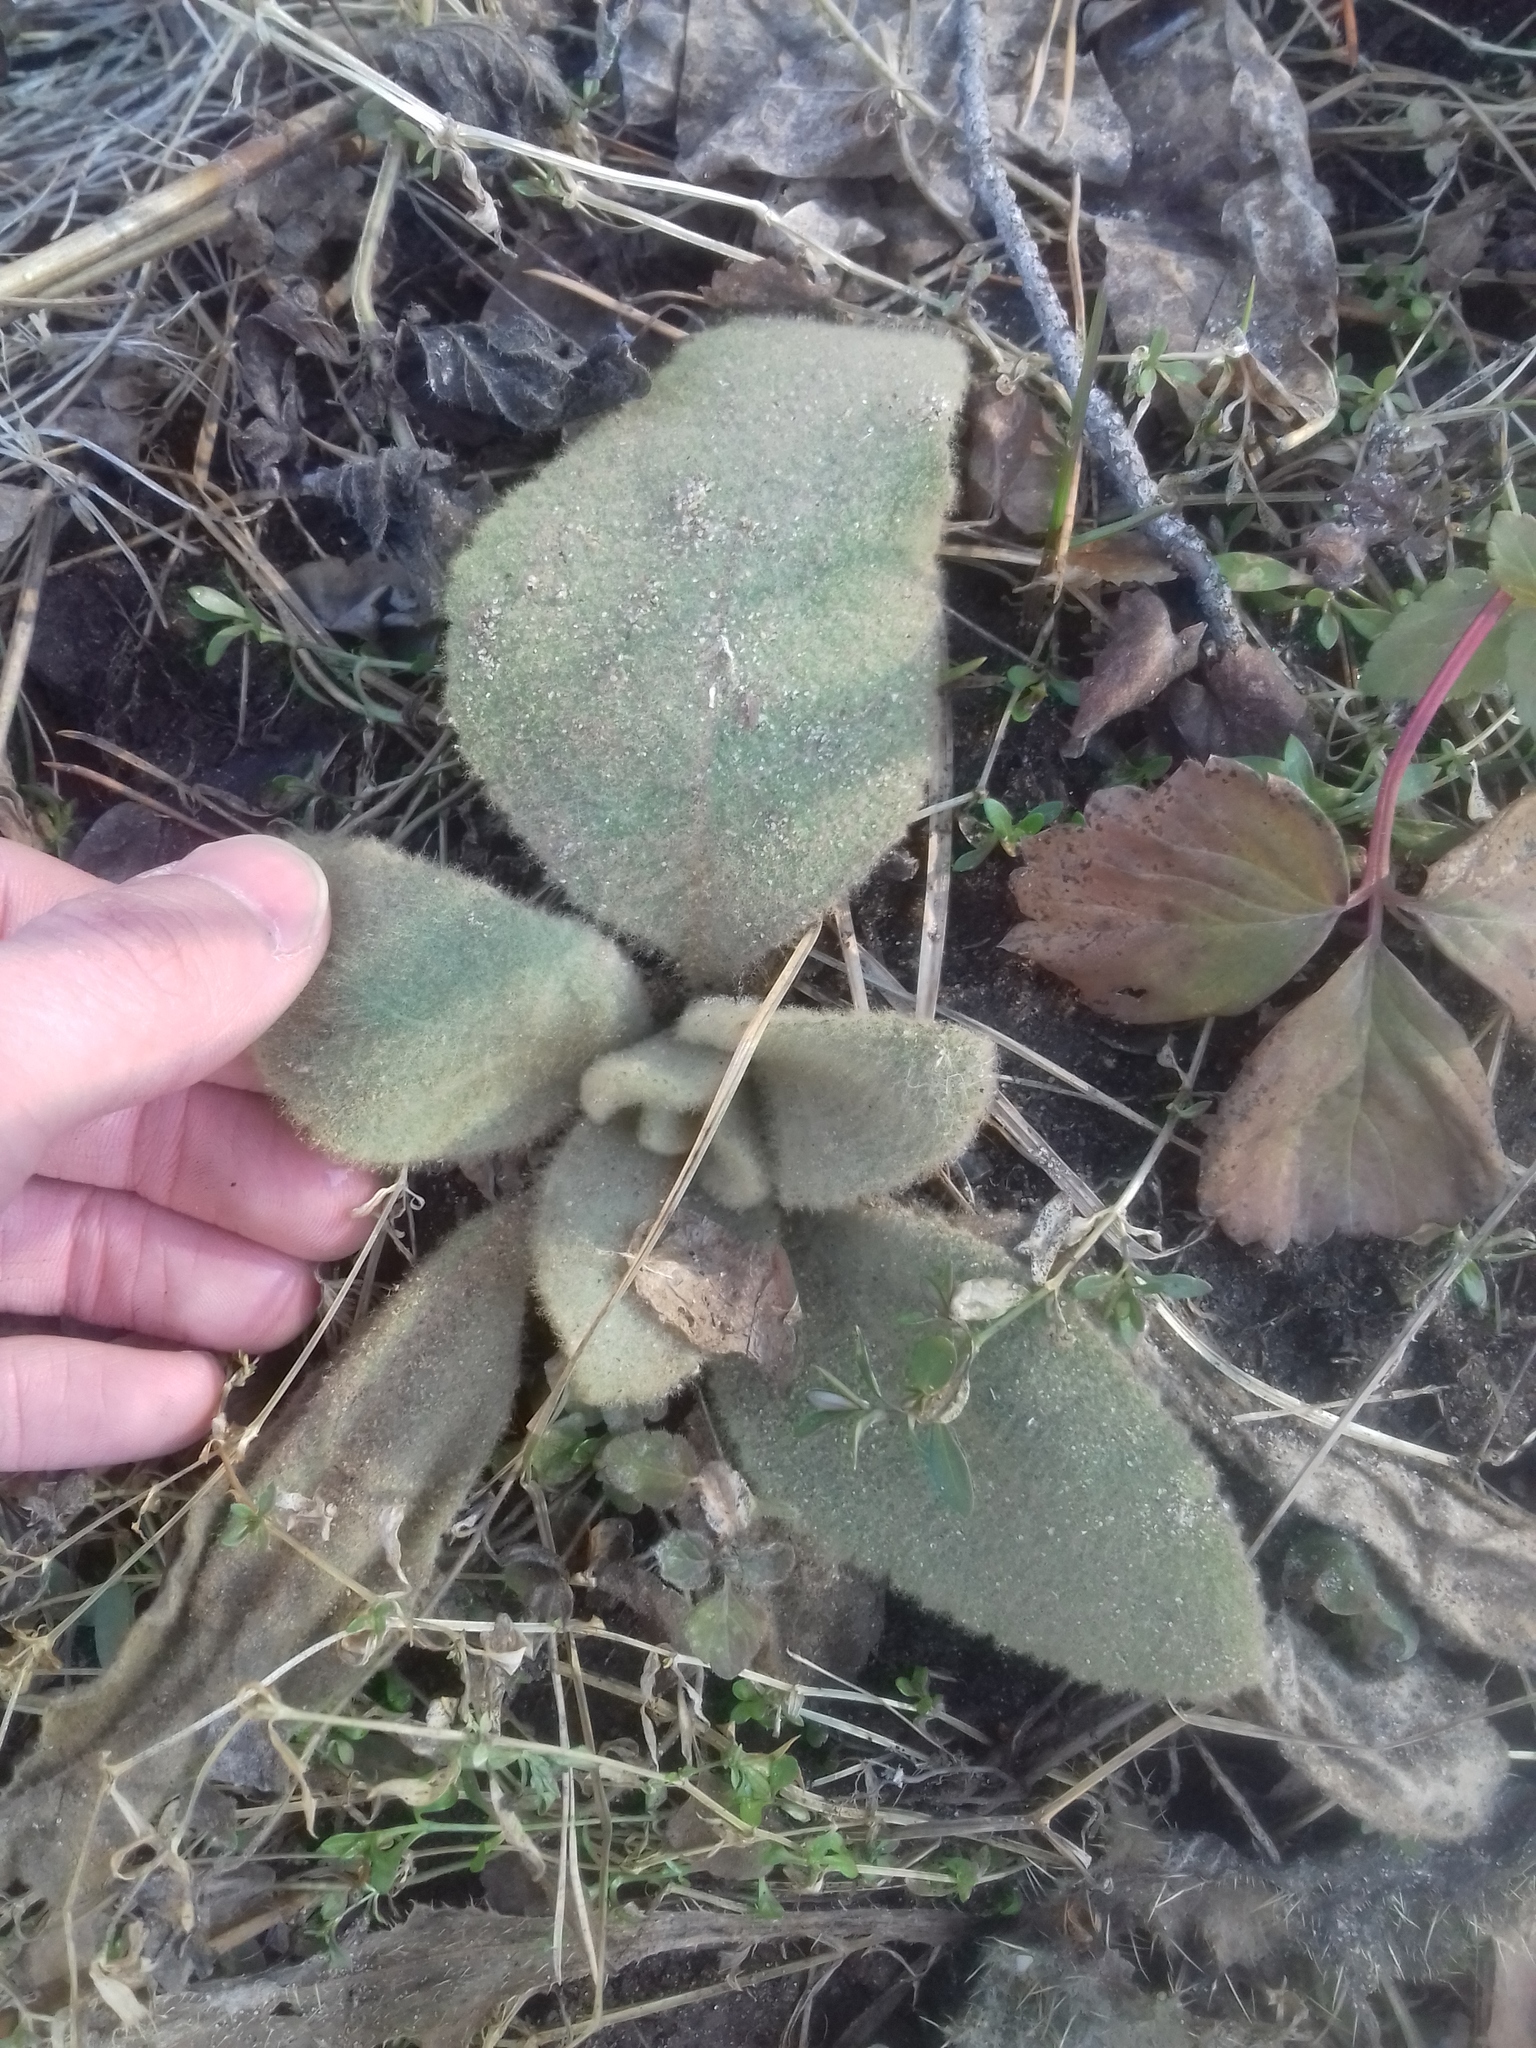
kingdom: Plantae
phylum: Tracheophyta
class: Magnoliopsida
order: Lamiales
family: Scrophulariaceae
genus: Verbascum
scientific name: Verbascum thapsus
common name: Common mullein
